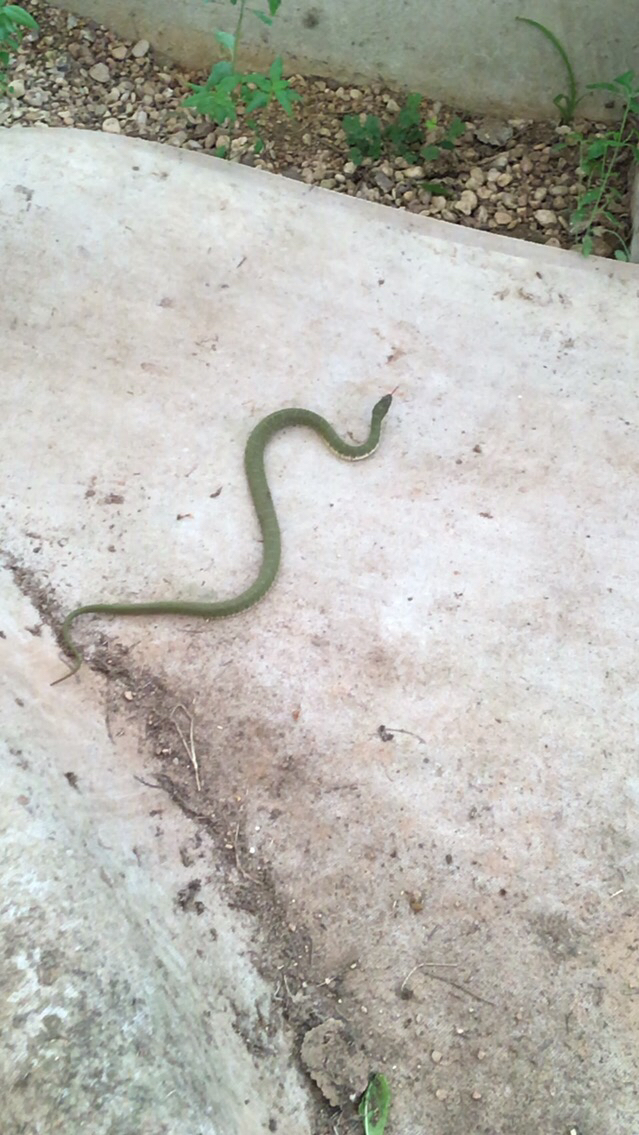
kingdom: Animalia
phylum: Chordata
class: Squamata
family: Colubridae
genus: Nerodia
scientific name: Nerodia erythrogaster
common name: Plainbelly water snake
